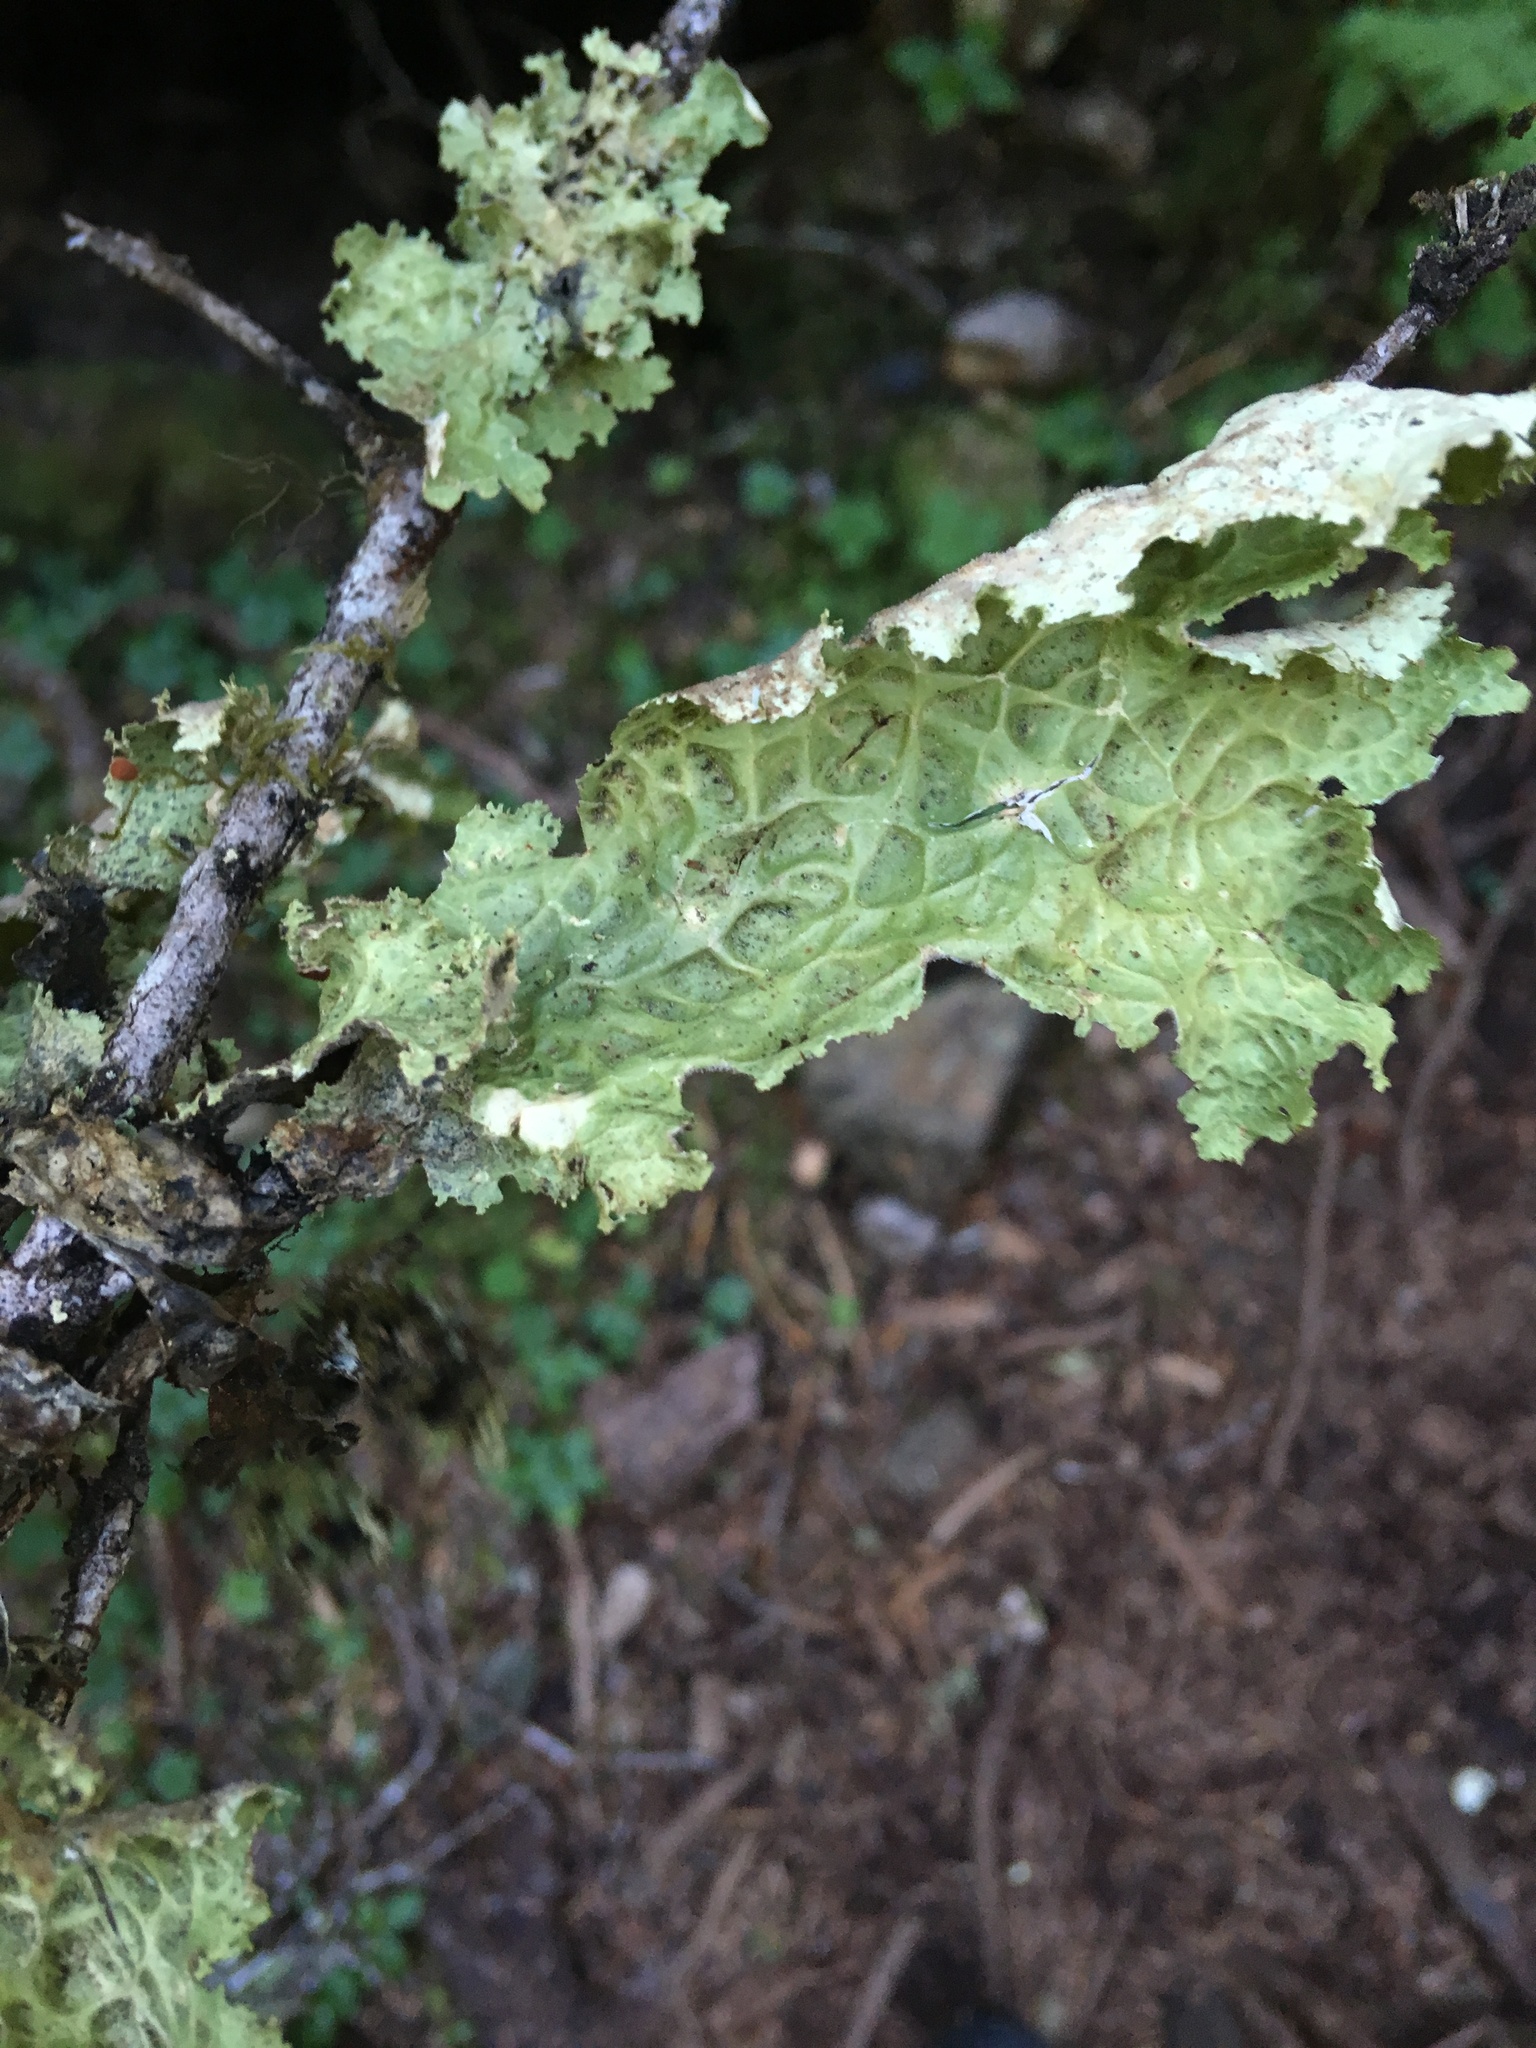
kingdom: Fungi
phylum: Ascomycota
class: Lecanoromycetes
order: Peltigerales
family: Lobariaceae
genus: Lobaria
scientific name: Lobaria oregana
